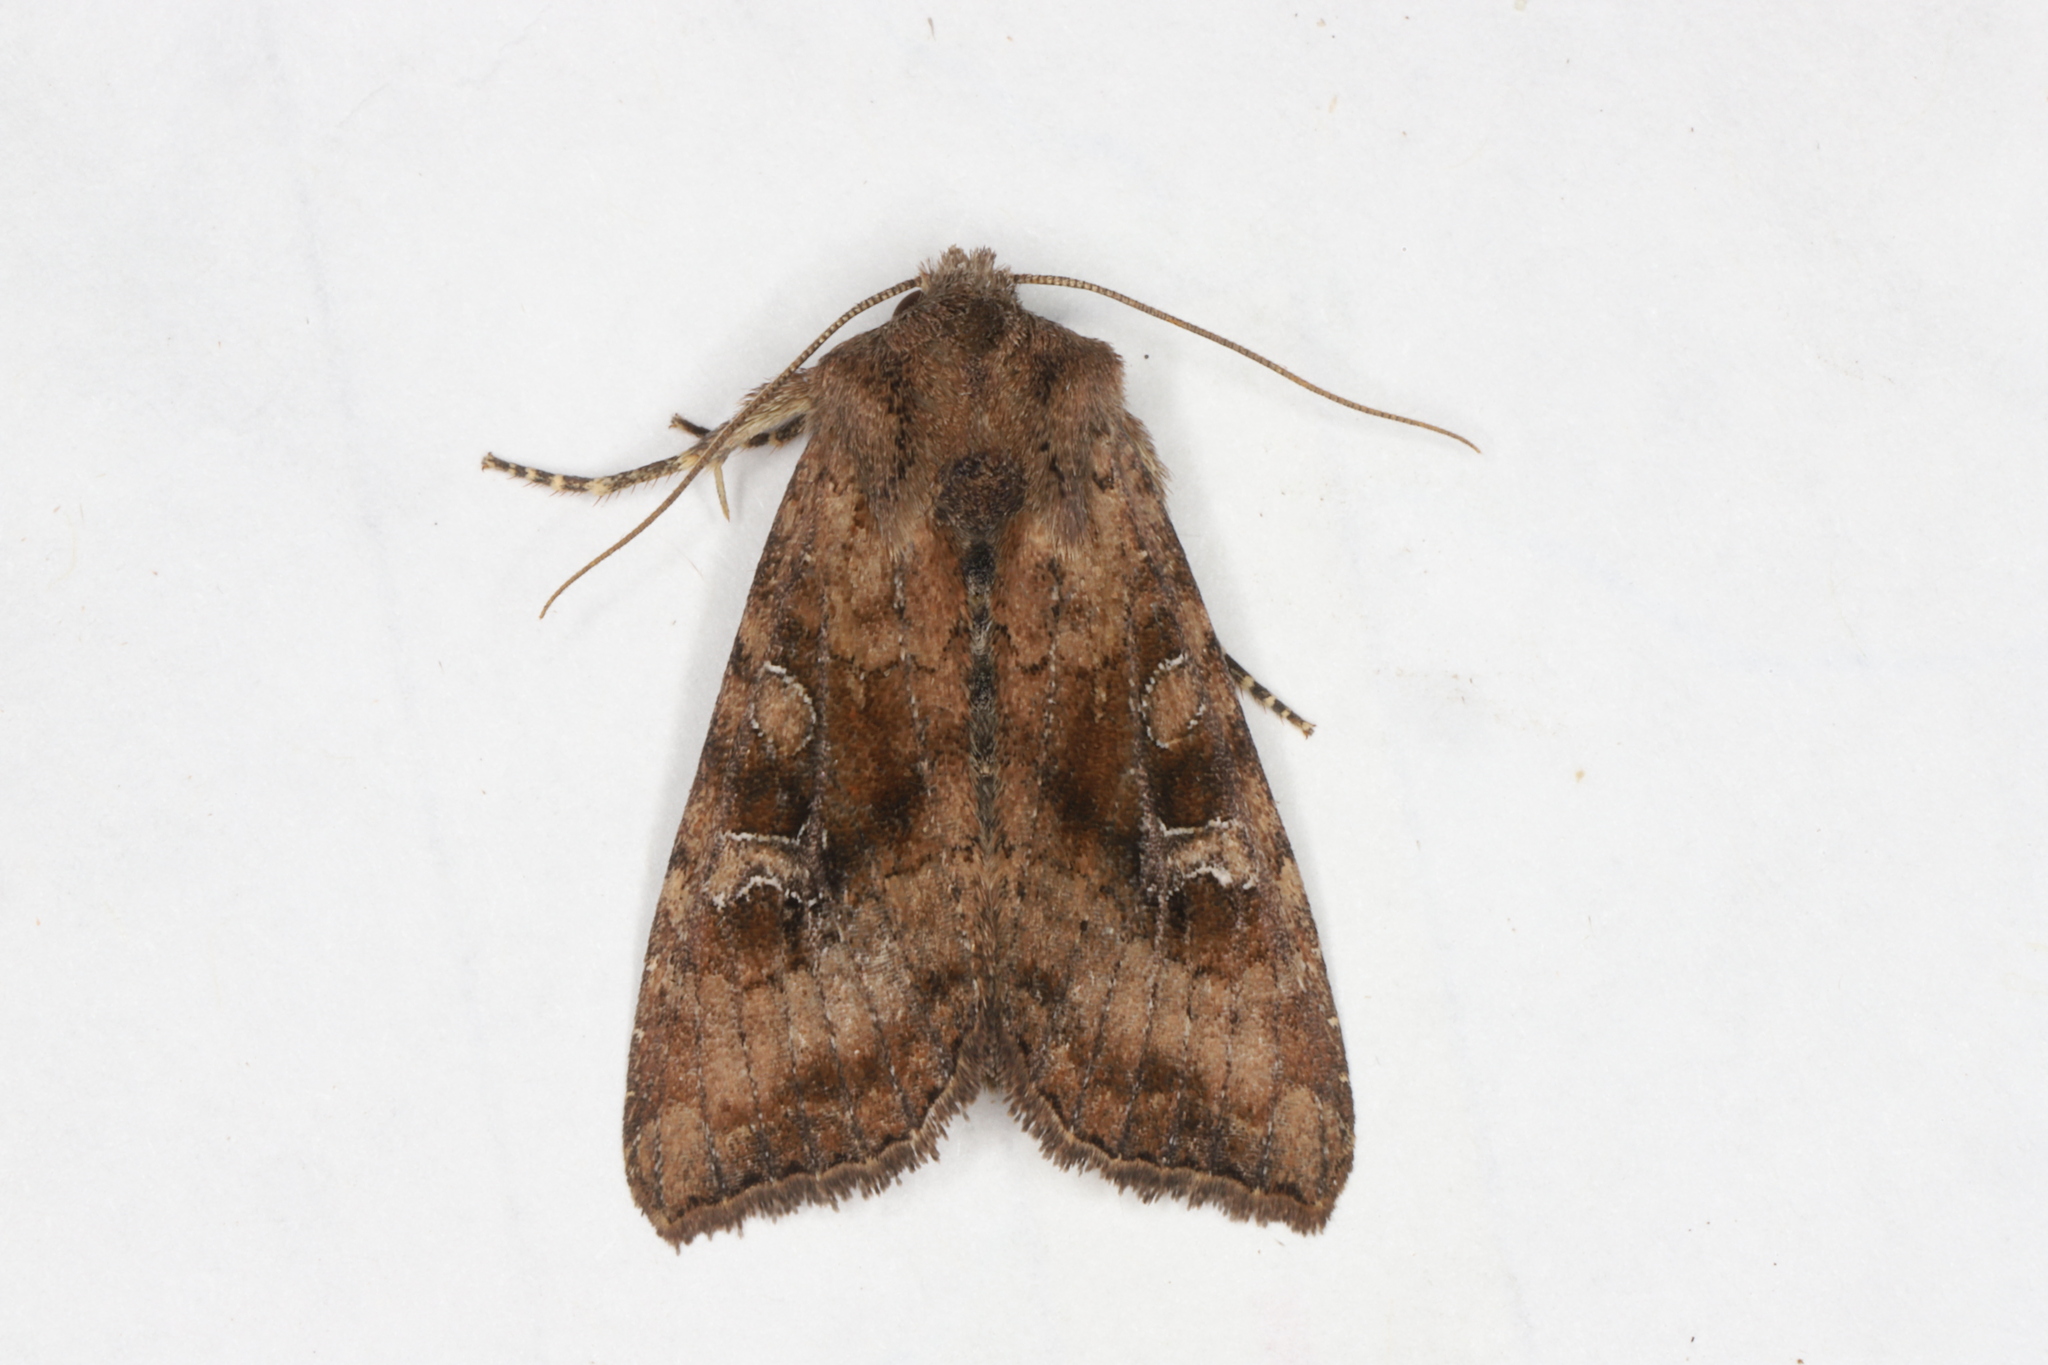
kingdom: Animalia
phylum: Arthropoda
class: Insecta
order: Lepidoptera
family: Noctuidae
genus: Loscopia
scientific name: Loscopia velata
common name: Veiled ear moth
